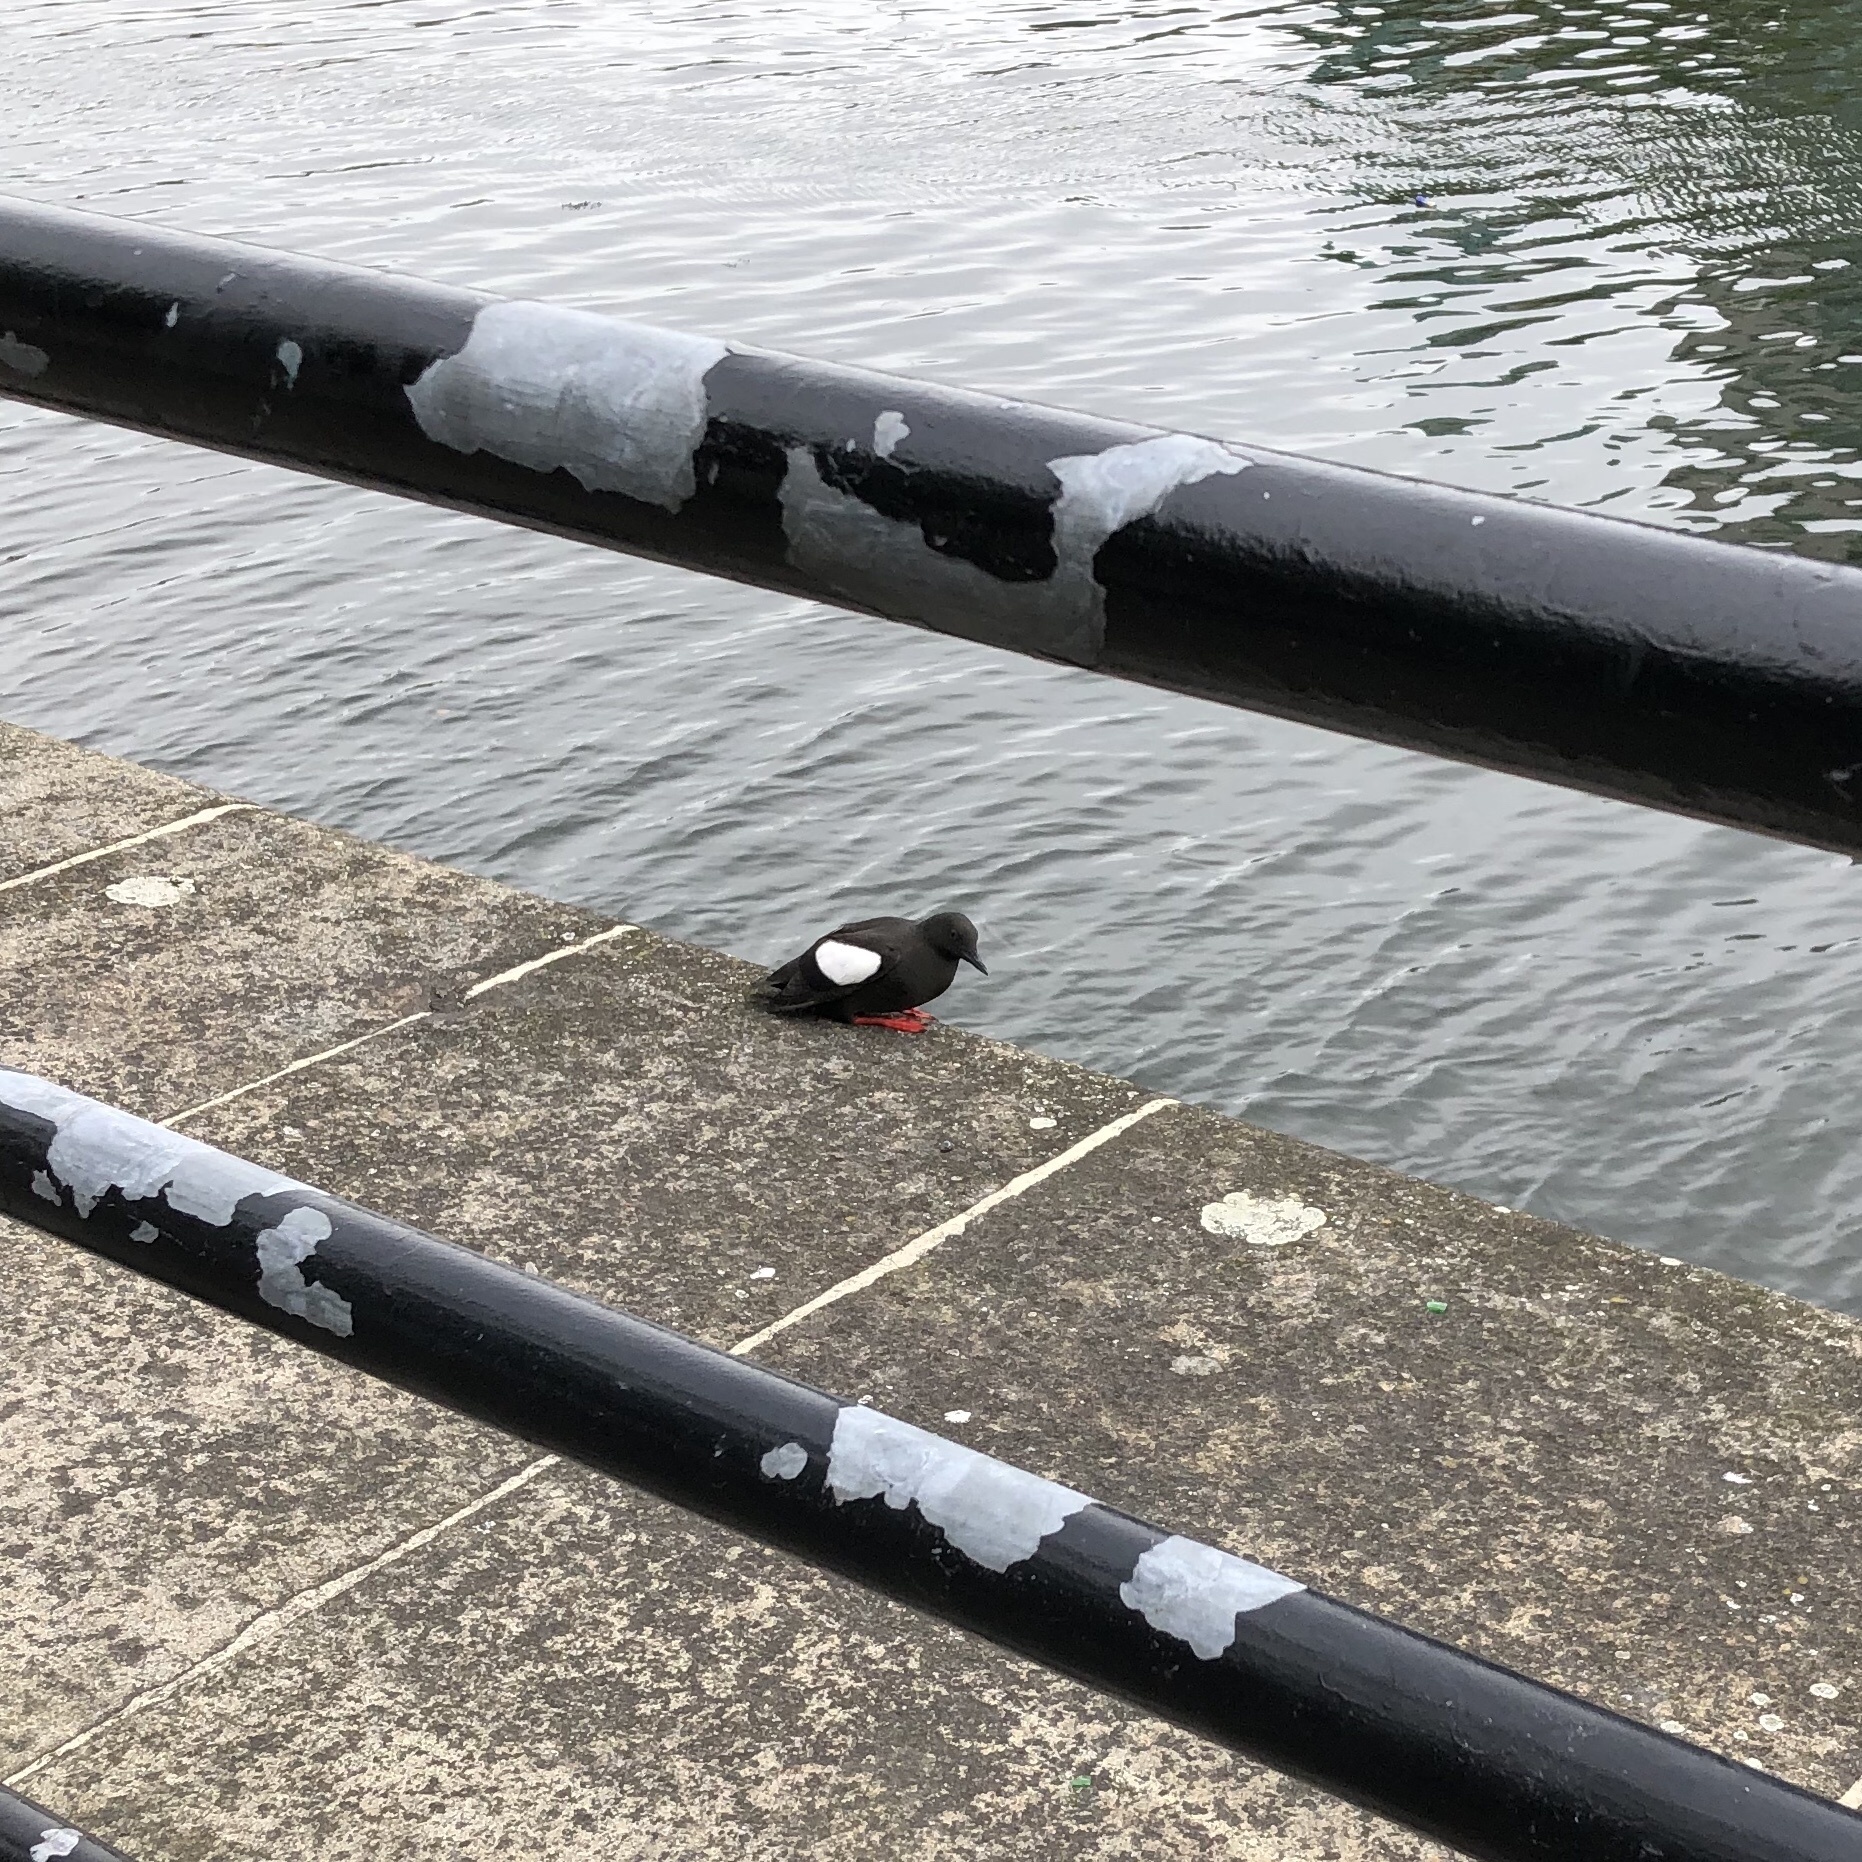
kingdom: Animalia
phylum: Chordata
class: Aves
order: Charadriiformes
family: Alcidae
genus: Cepphus
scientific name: Cepphus grylle
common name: Black guillemot
